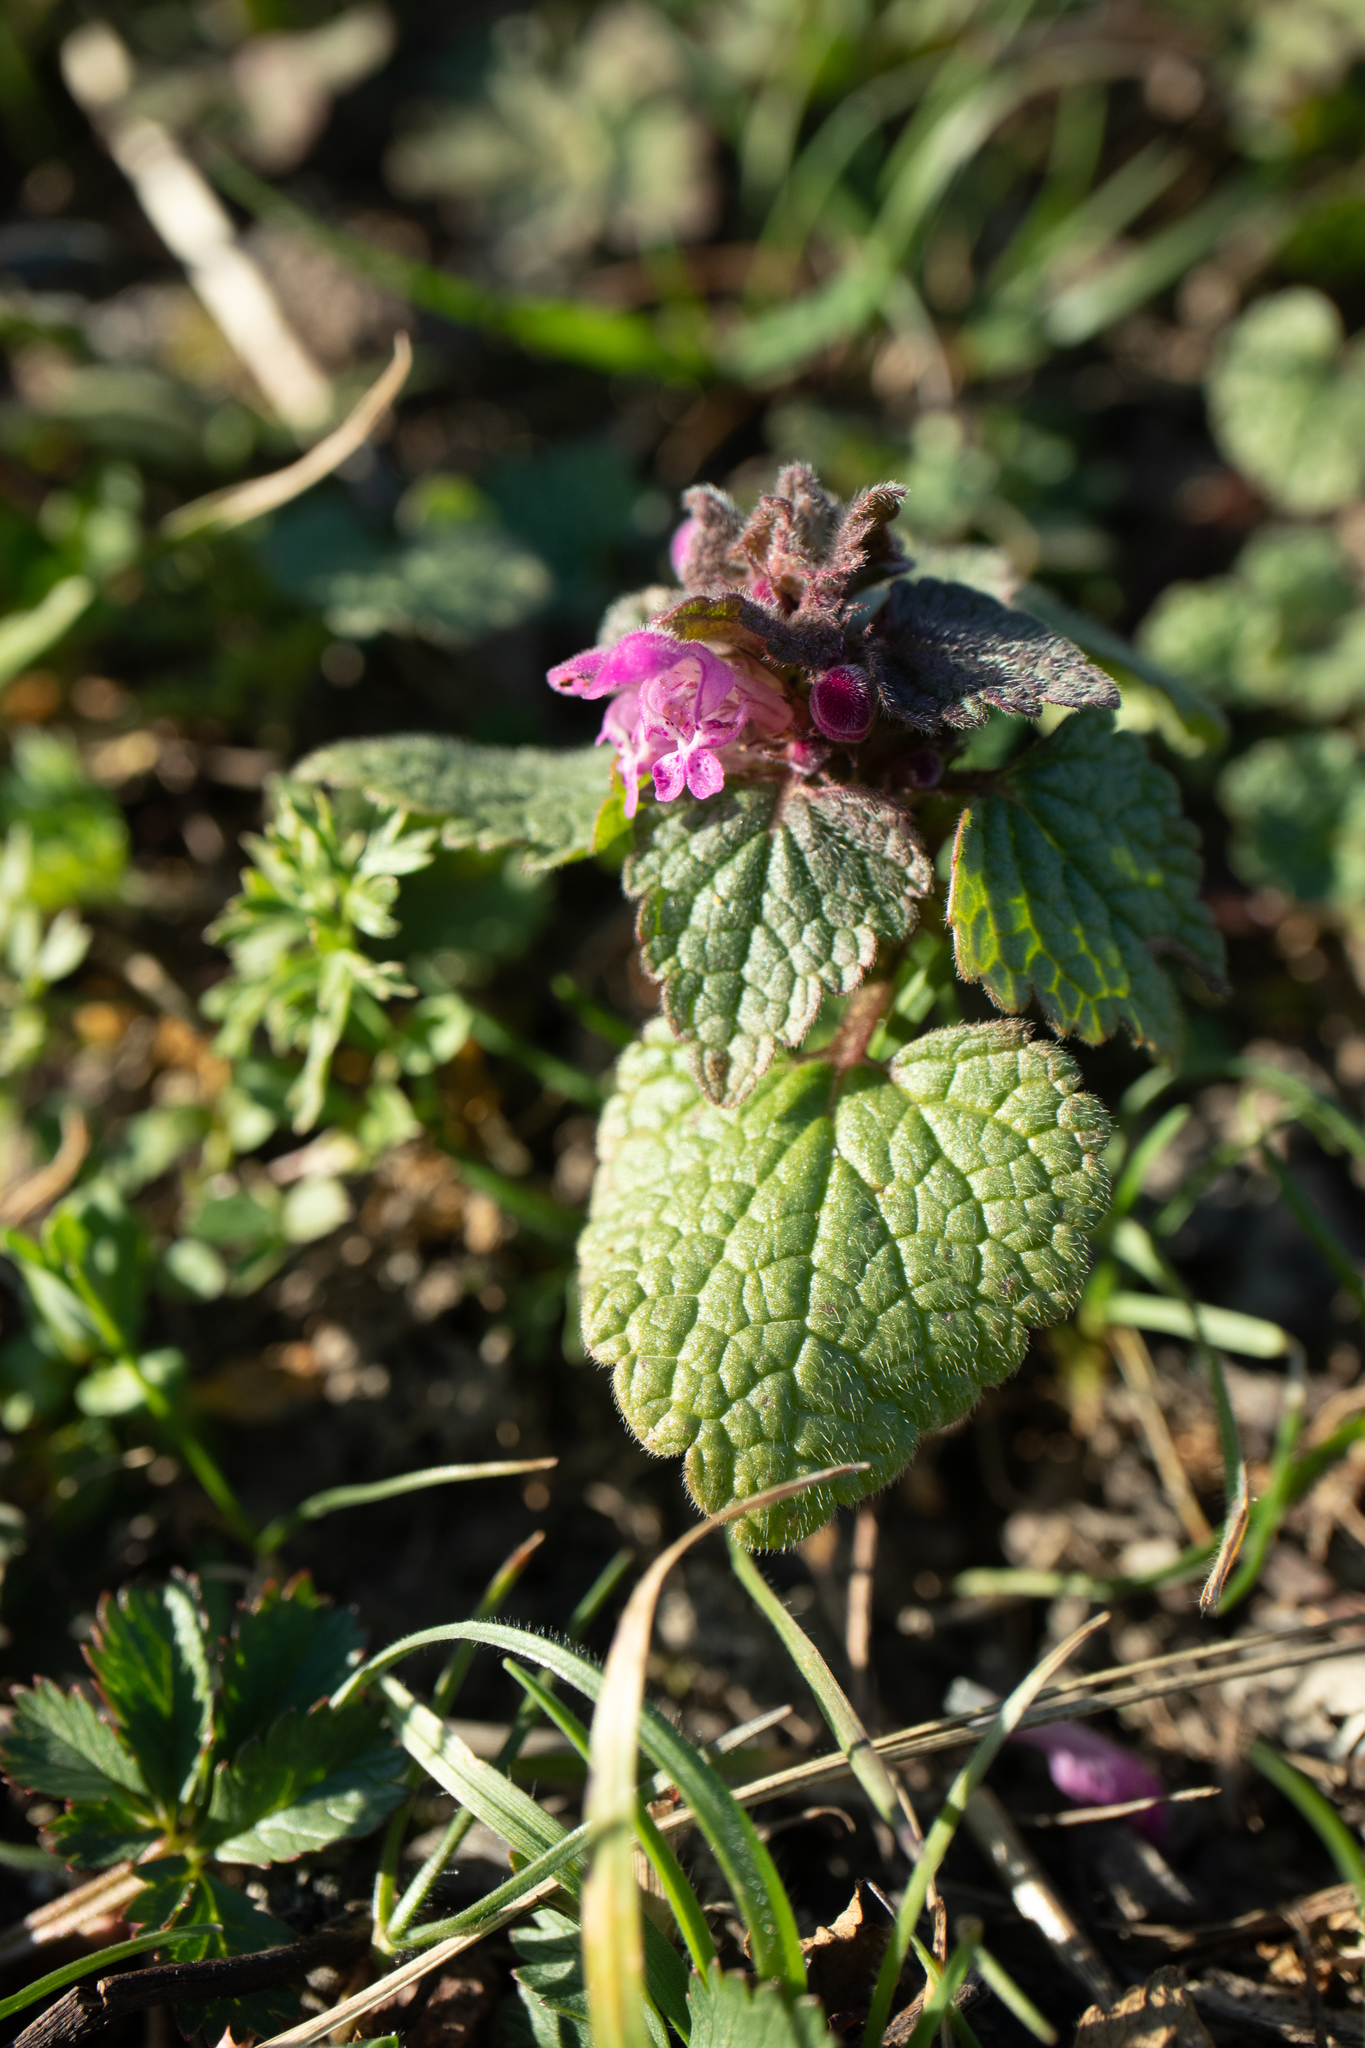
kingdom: Plantae
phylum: Tracheophyta
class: Magnoliopsida
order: Lamiales
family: Lamiaceae
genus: Lamium
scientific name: Lamium purpureum
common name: Red dead-nettle
